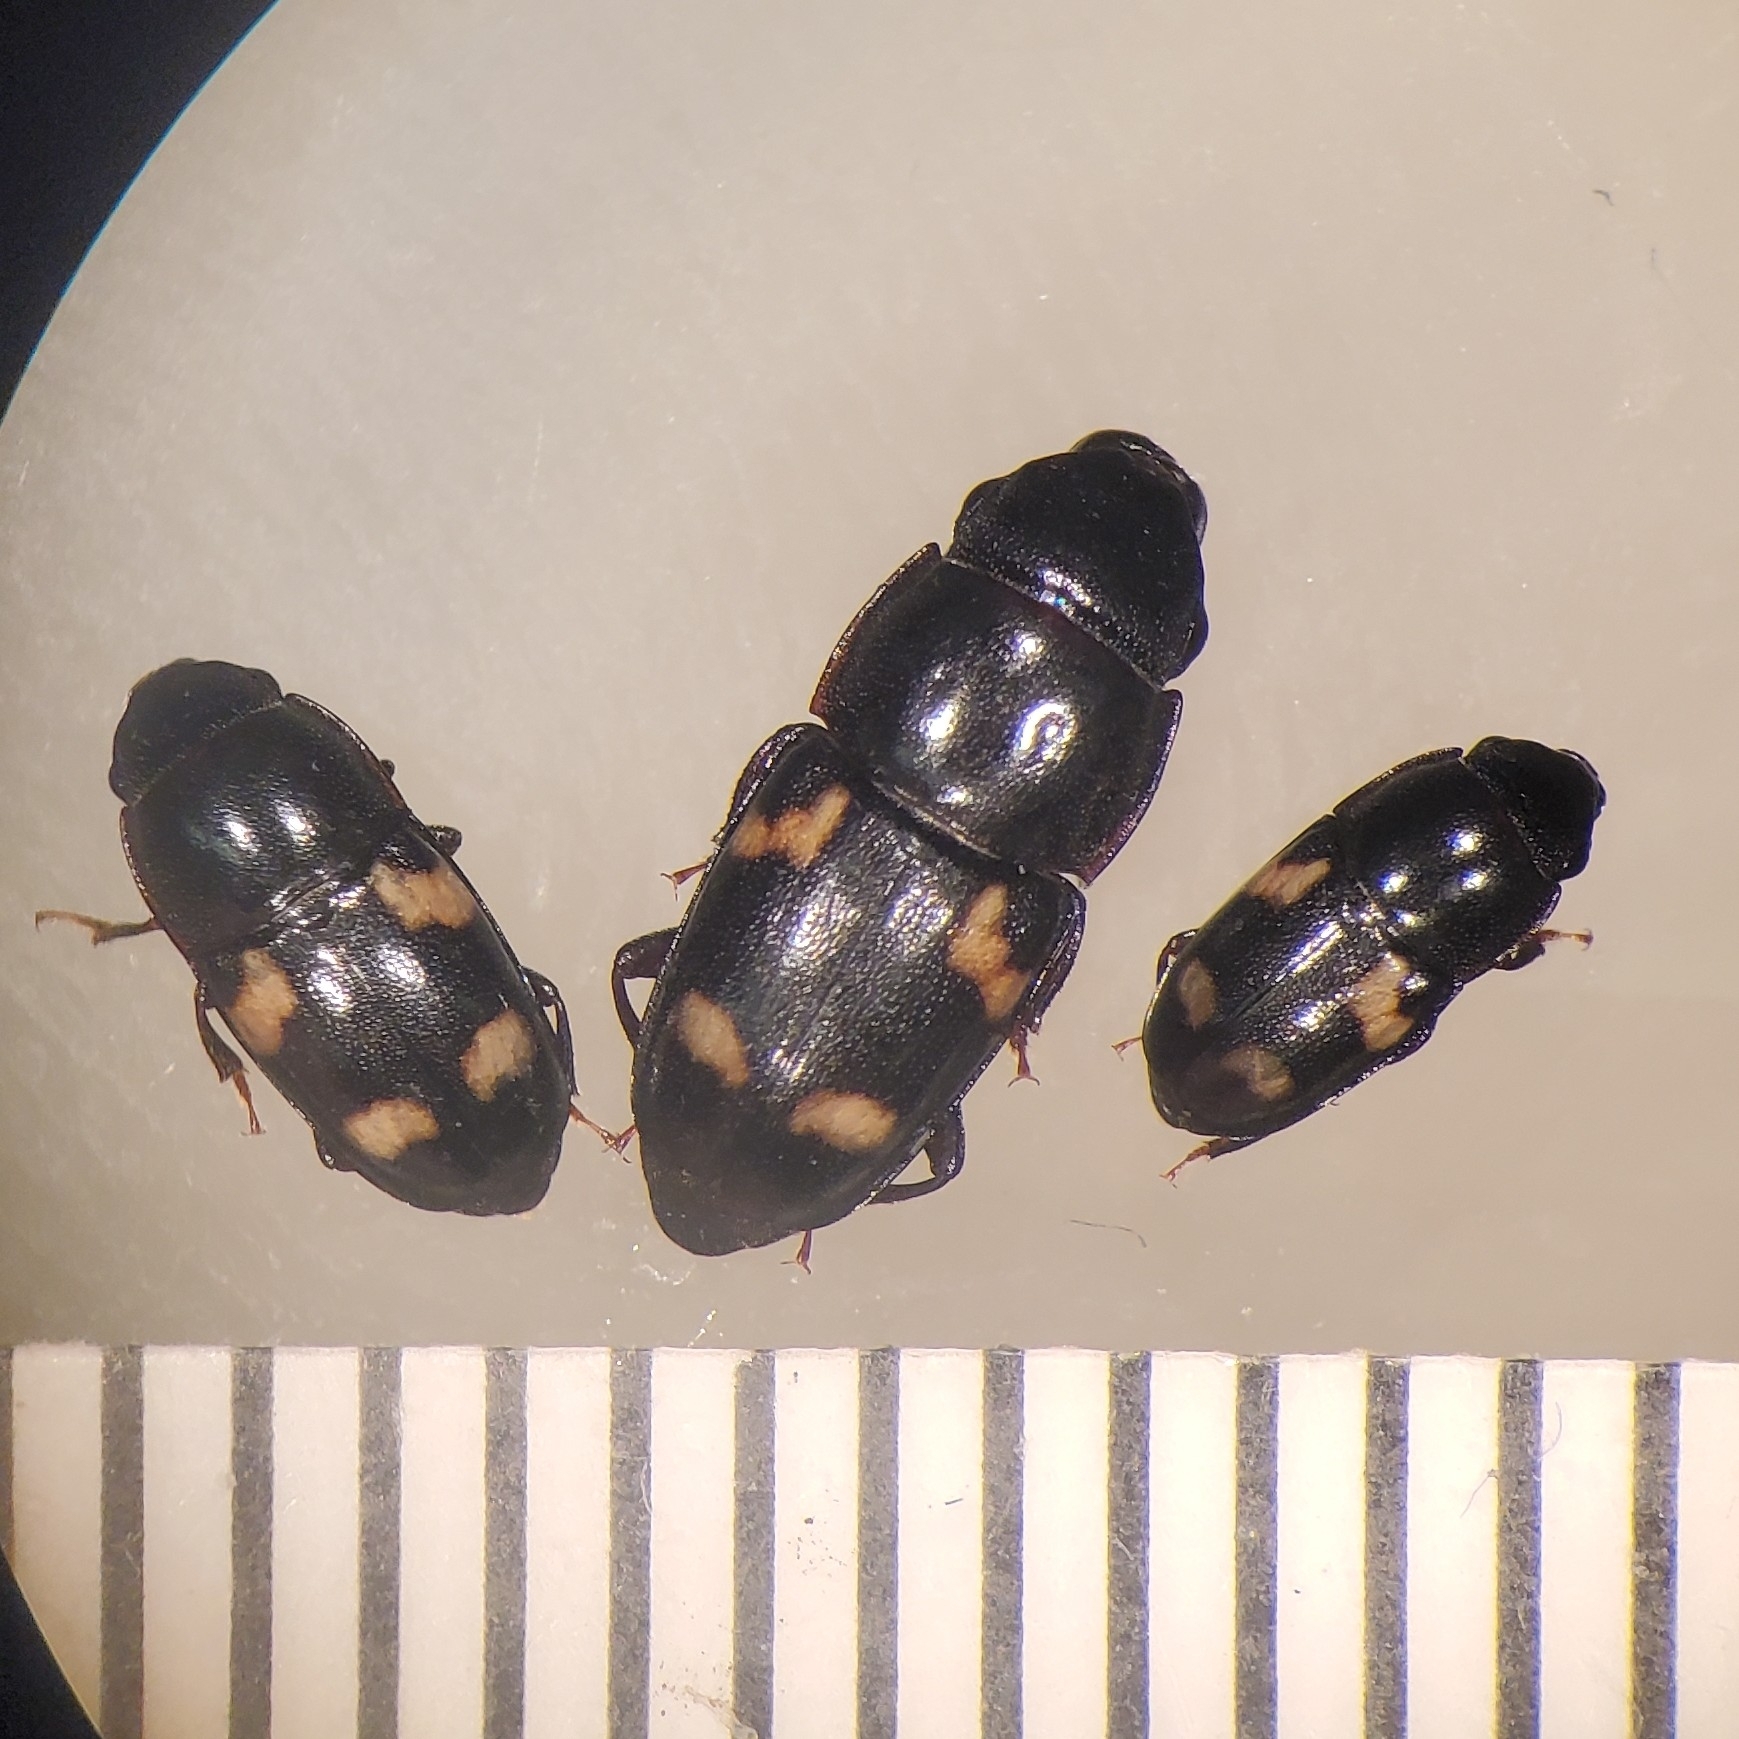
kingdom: Animalia
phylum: Arthropoda
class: Insecta
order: Coleoptera
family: Nitidulidae
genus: Glischrochilus
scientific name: Glischrochilus quadrisignatus
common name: Picnic beetle
